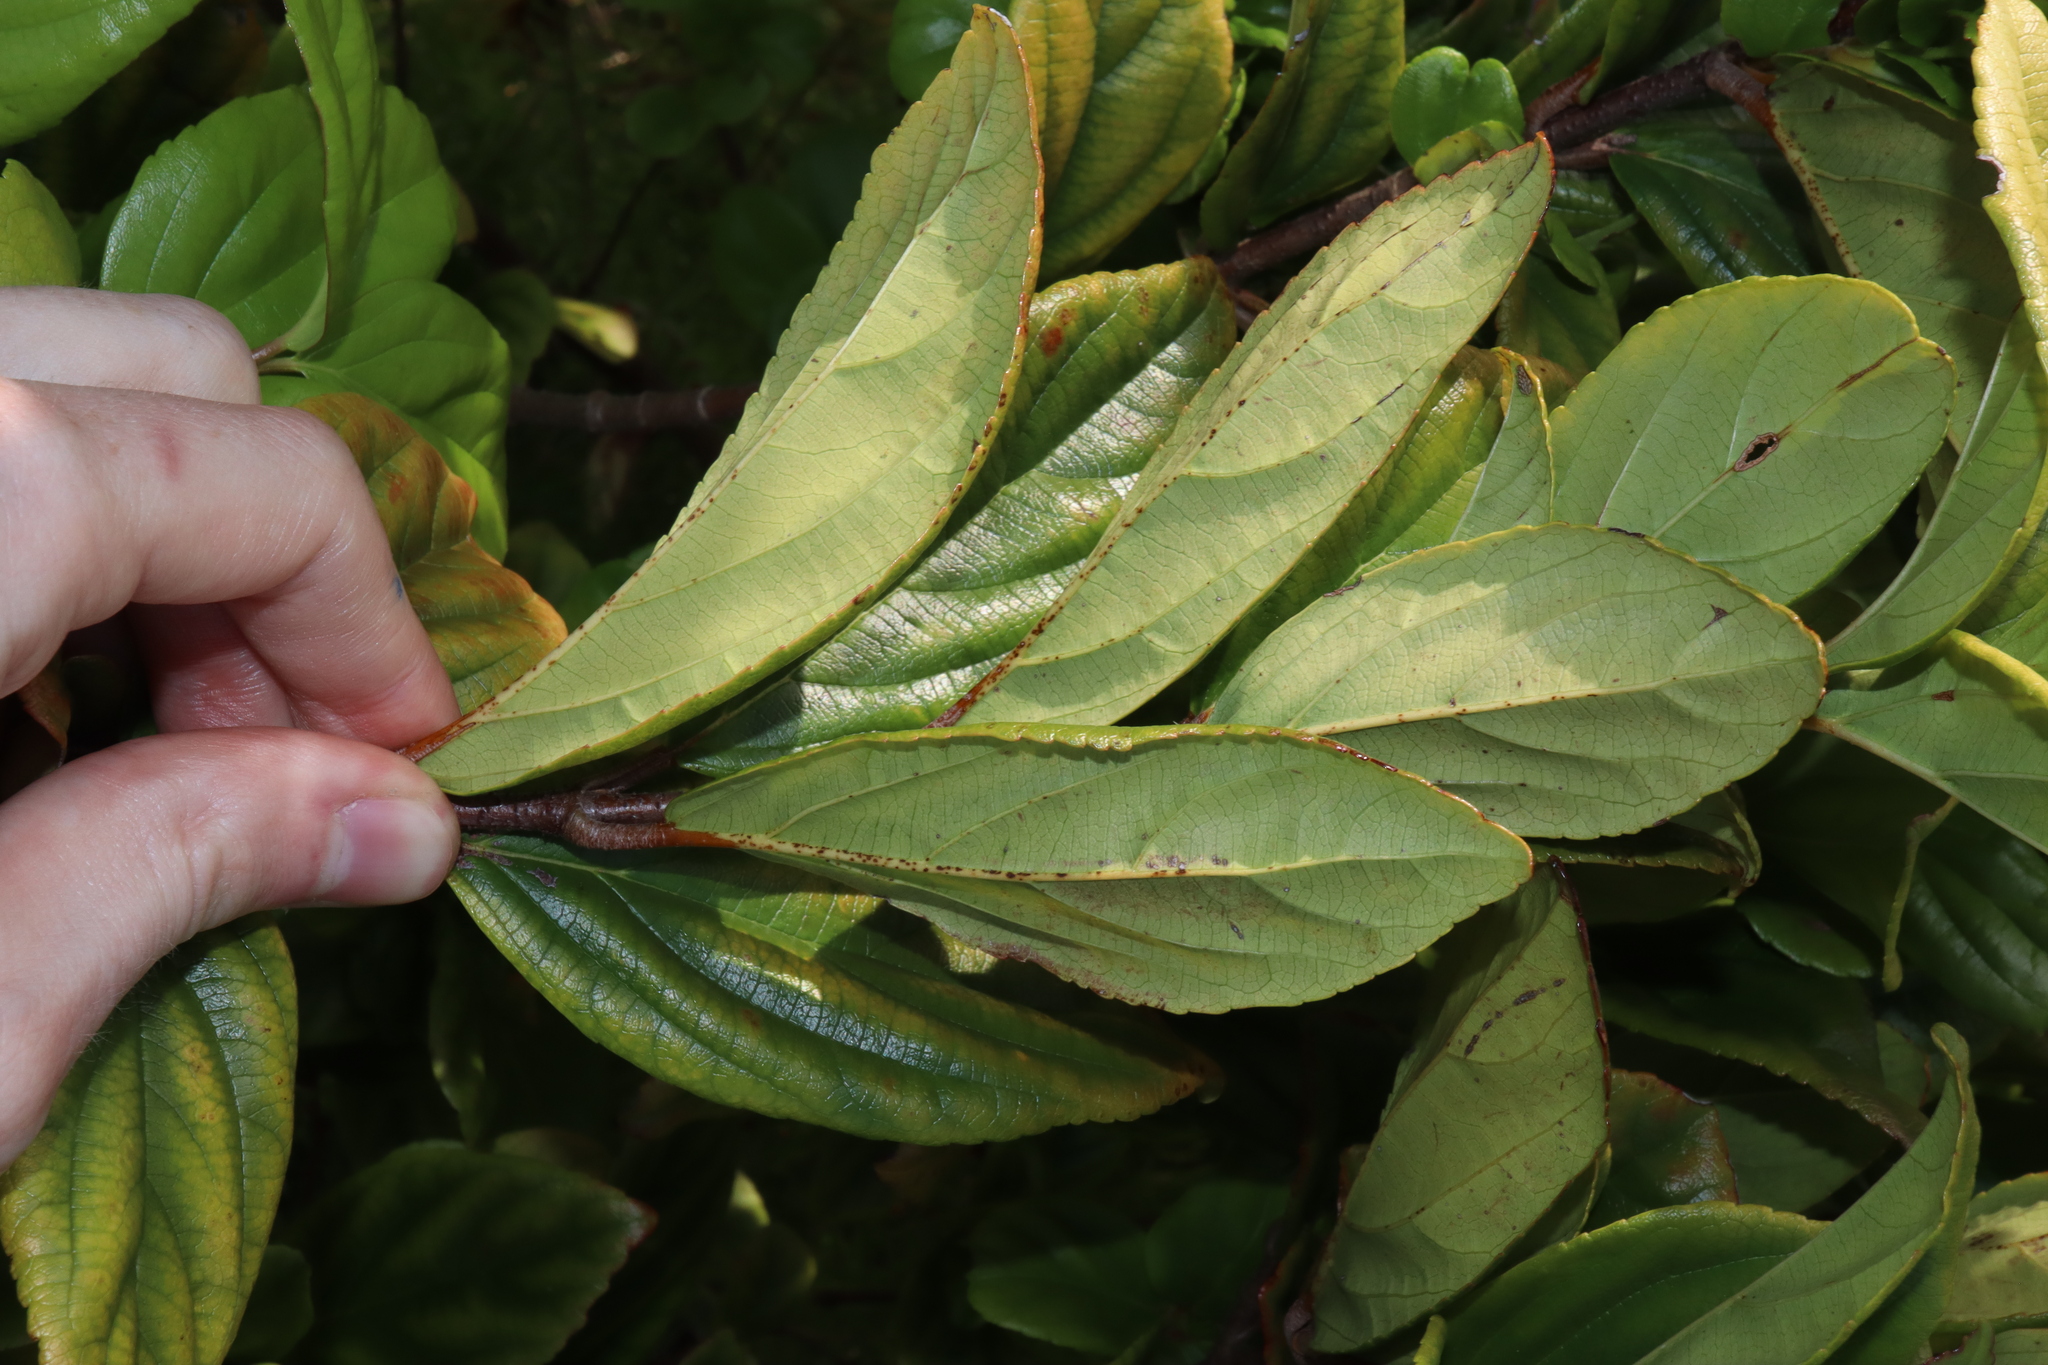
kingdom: Plantae
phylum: Tracheophyta
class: Magnoliopsida
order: Dipsacales
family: Viburnaceae
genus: Viburnum
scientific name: Viburnum suspensum
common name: Viburnum
